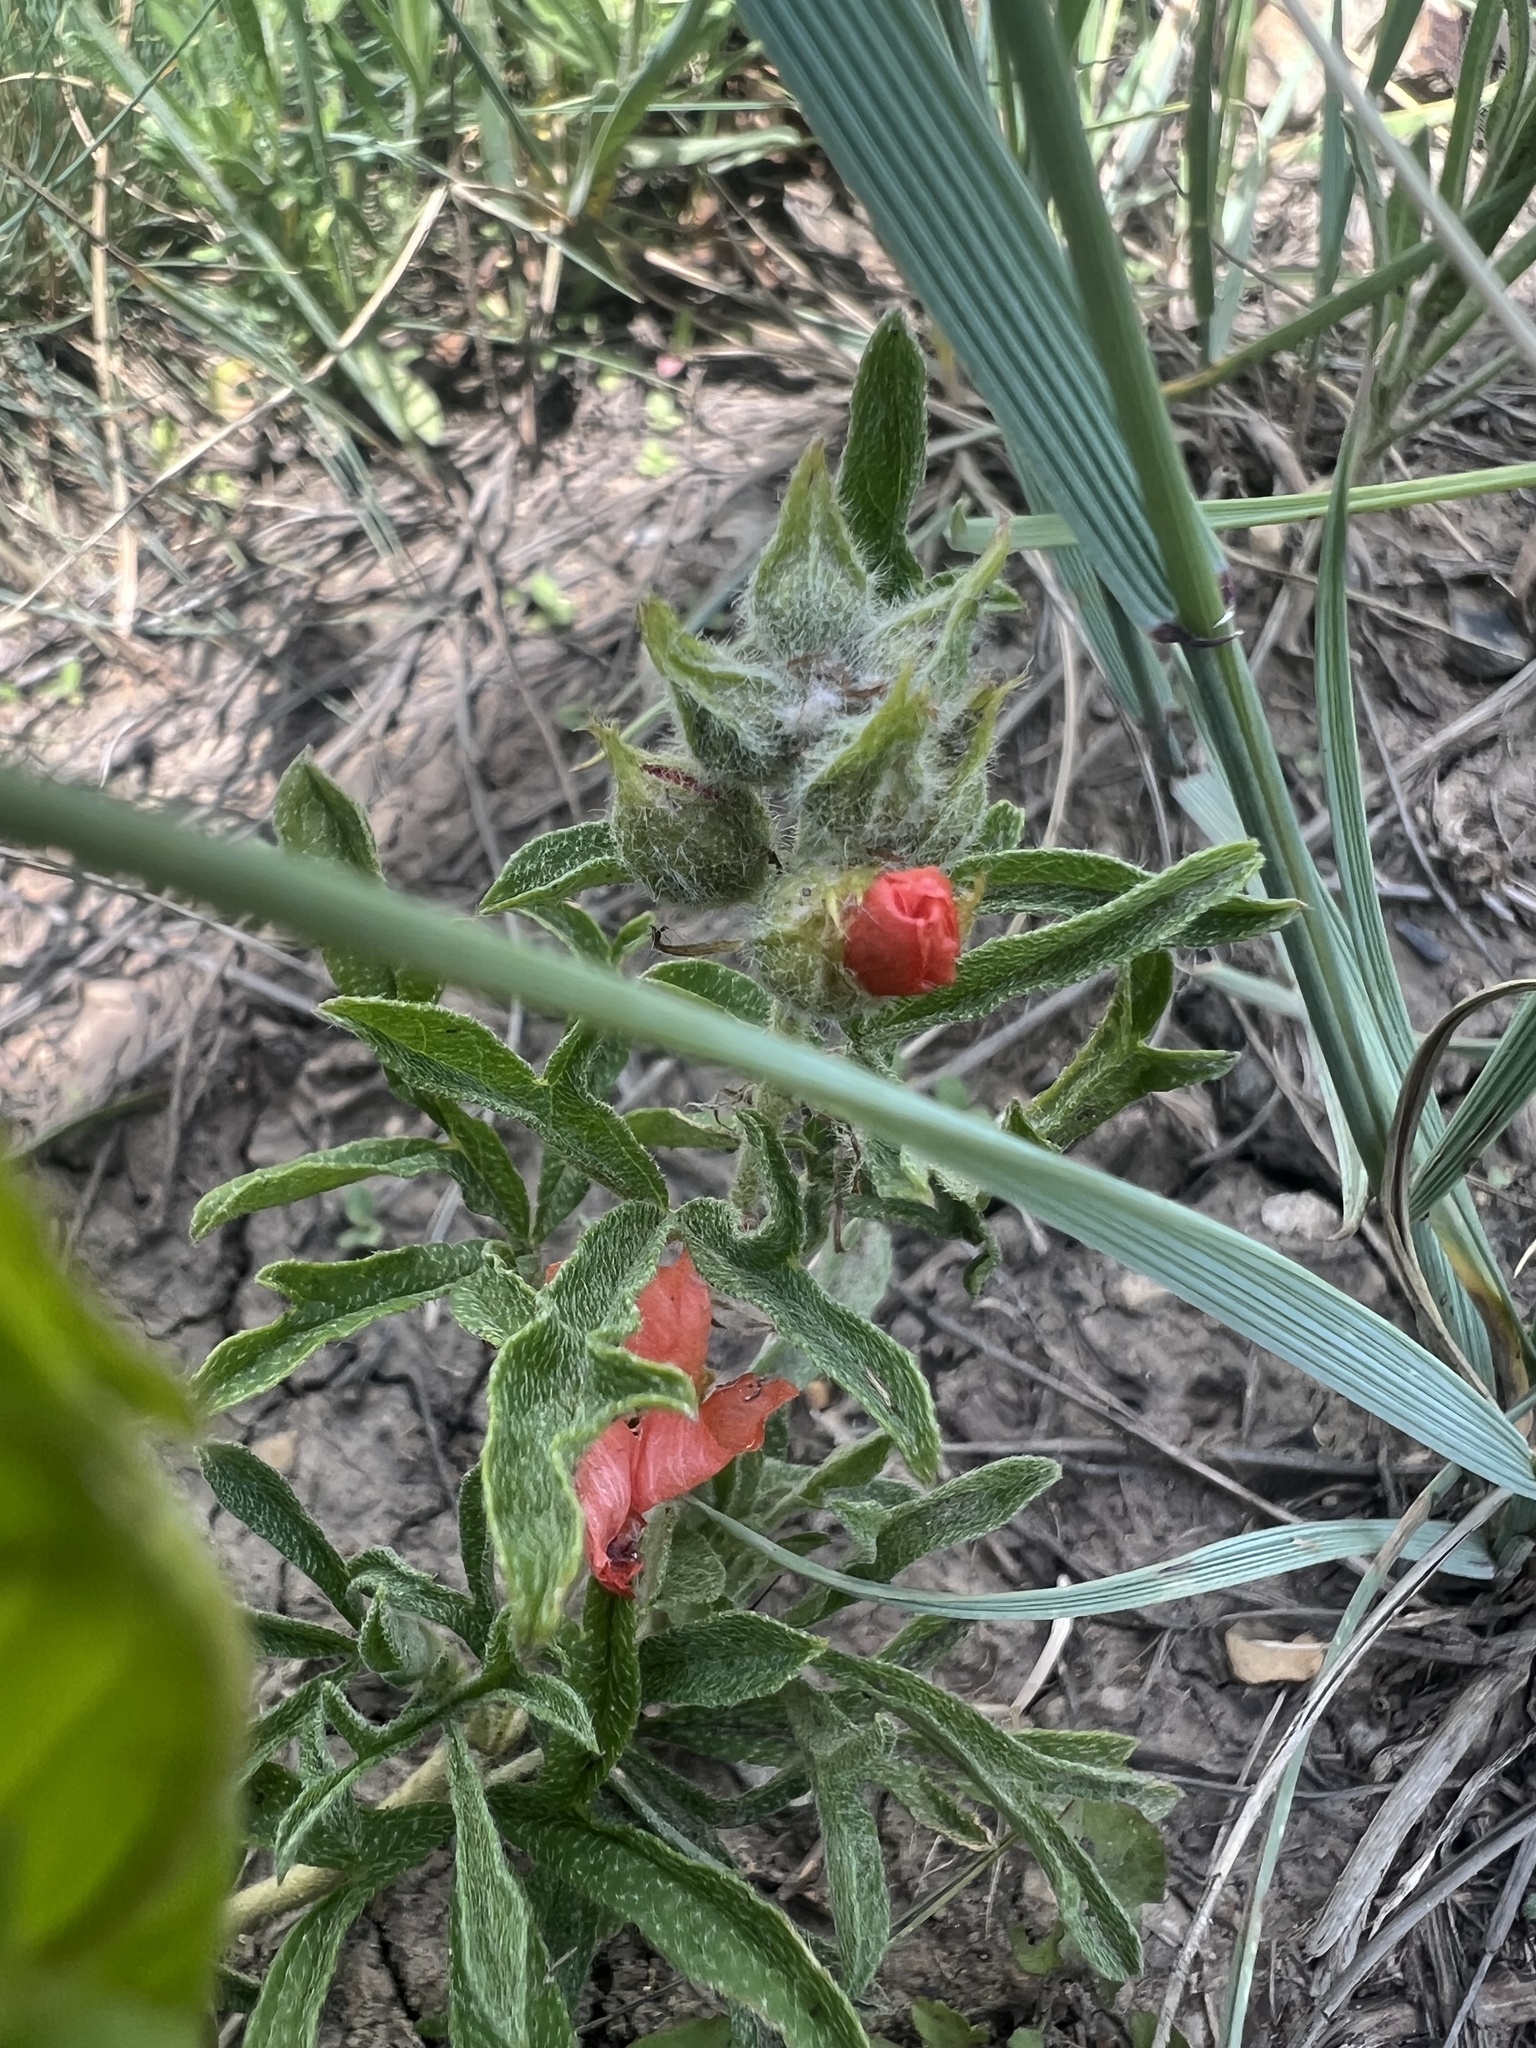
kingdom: Plantae
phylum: Tracheophyta
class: Magnoliopsida
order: Malvales
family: Malvaceae
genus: Sphaeralcea
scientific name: Sphaeralcea coccinea
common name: Moss-rose
